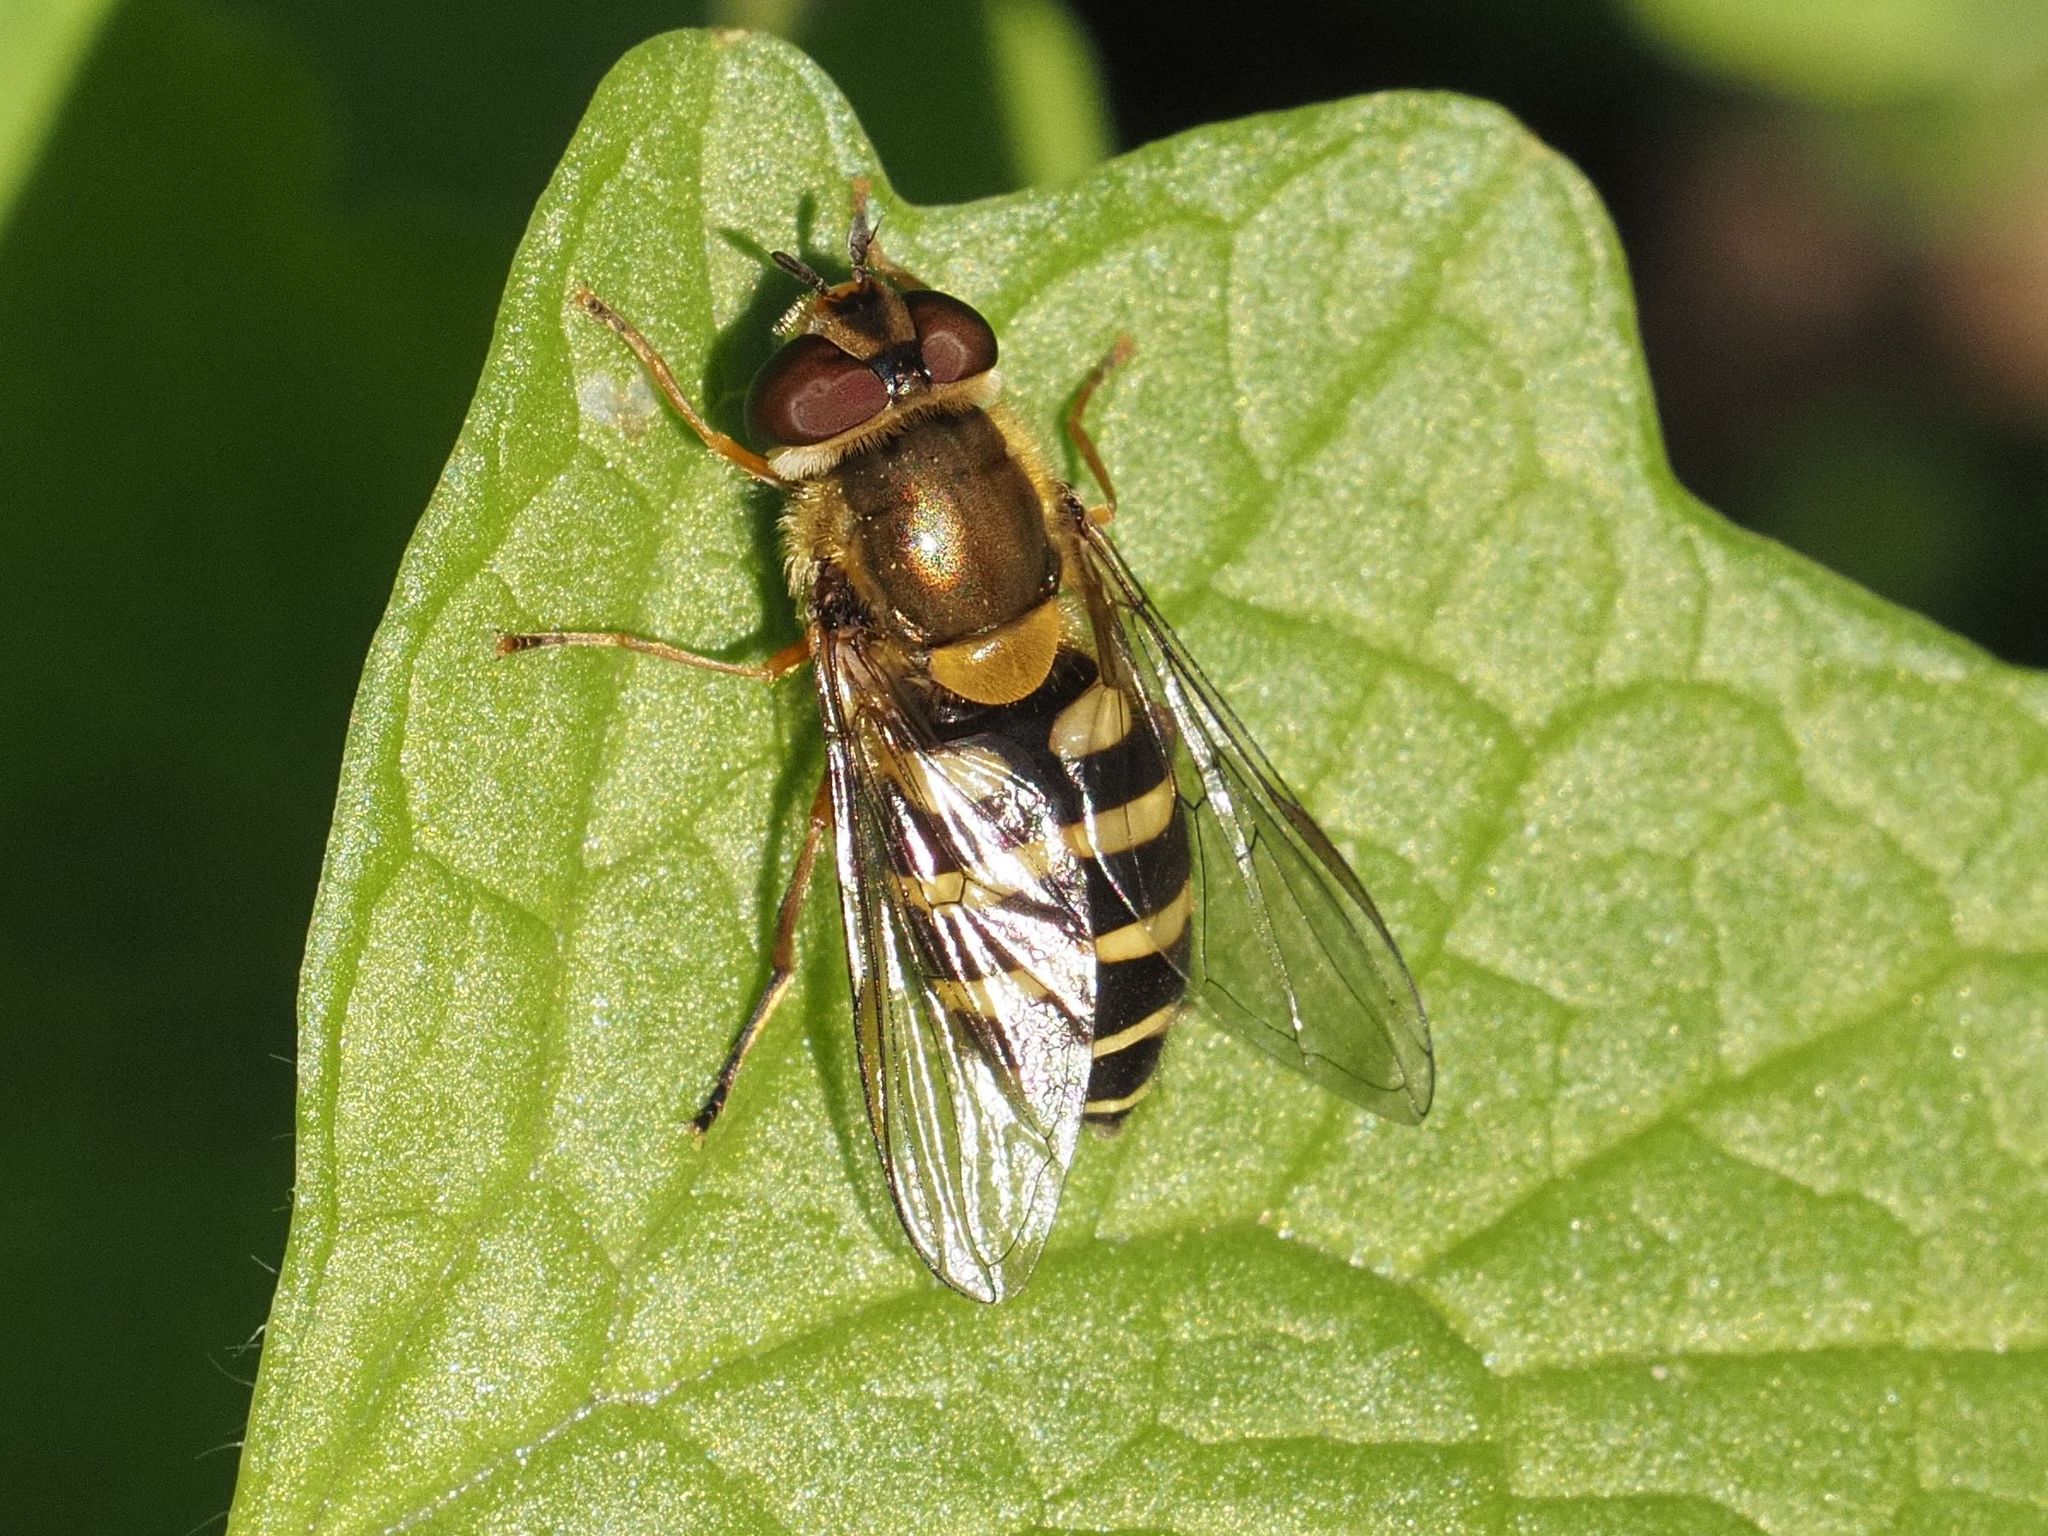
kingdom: Animalia
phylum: Arthropoda
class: Insecta
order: Diptera
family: Syrphidae
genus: Syrphus
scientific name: Syrphus
